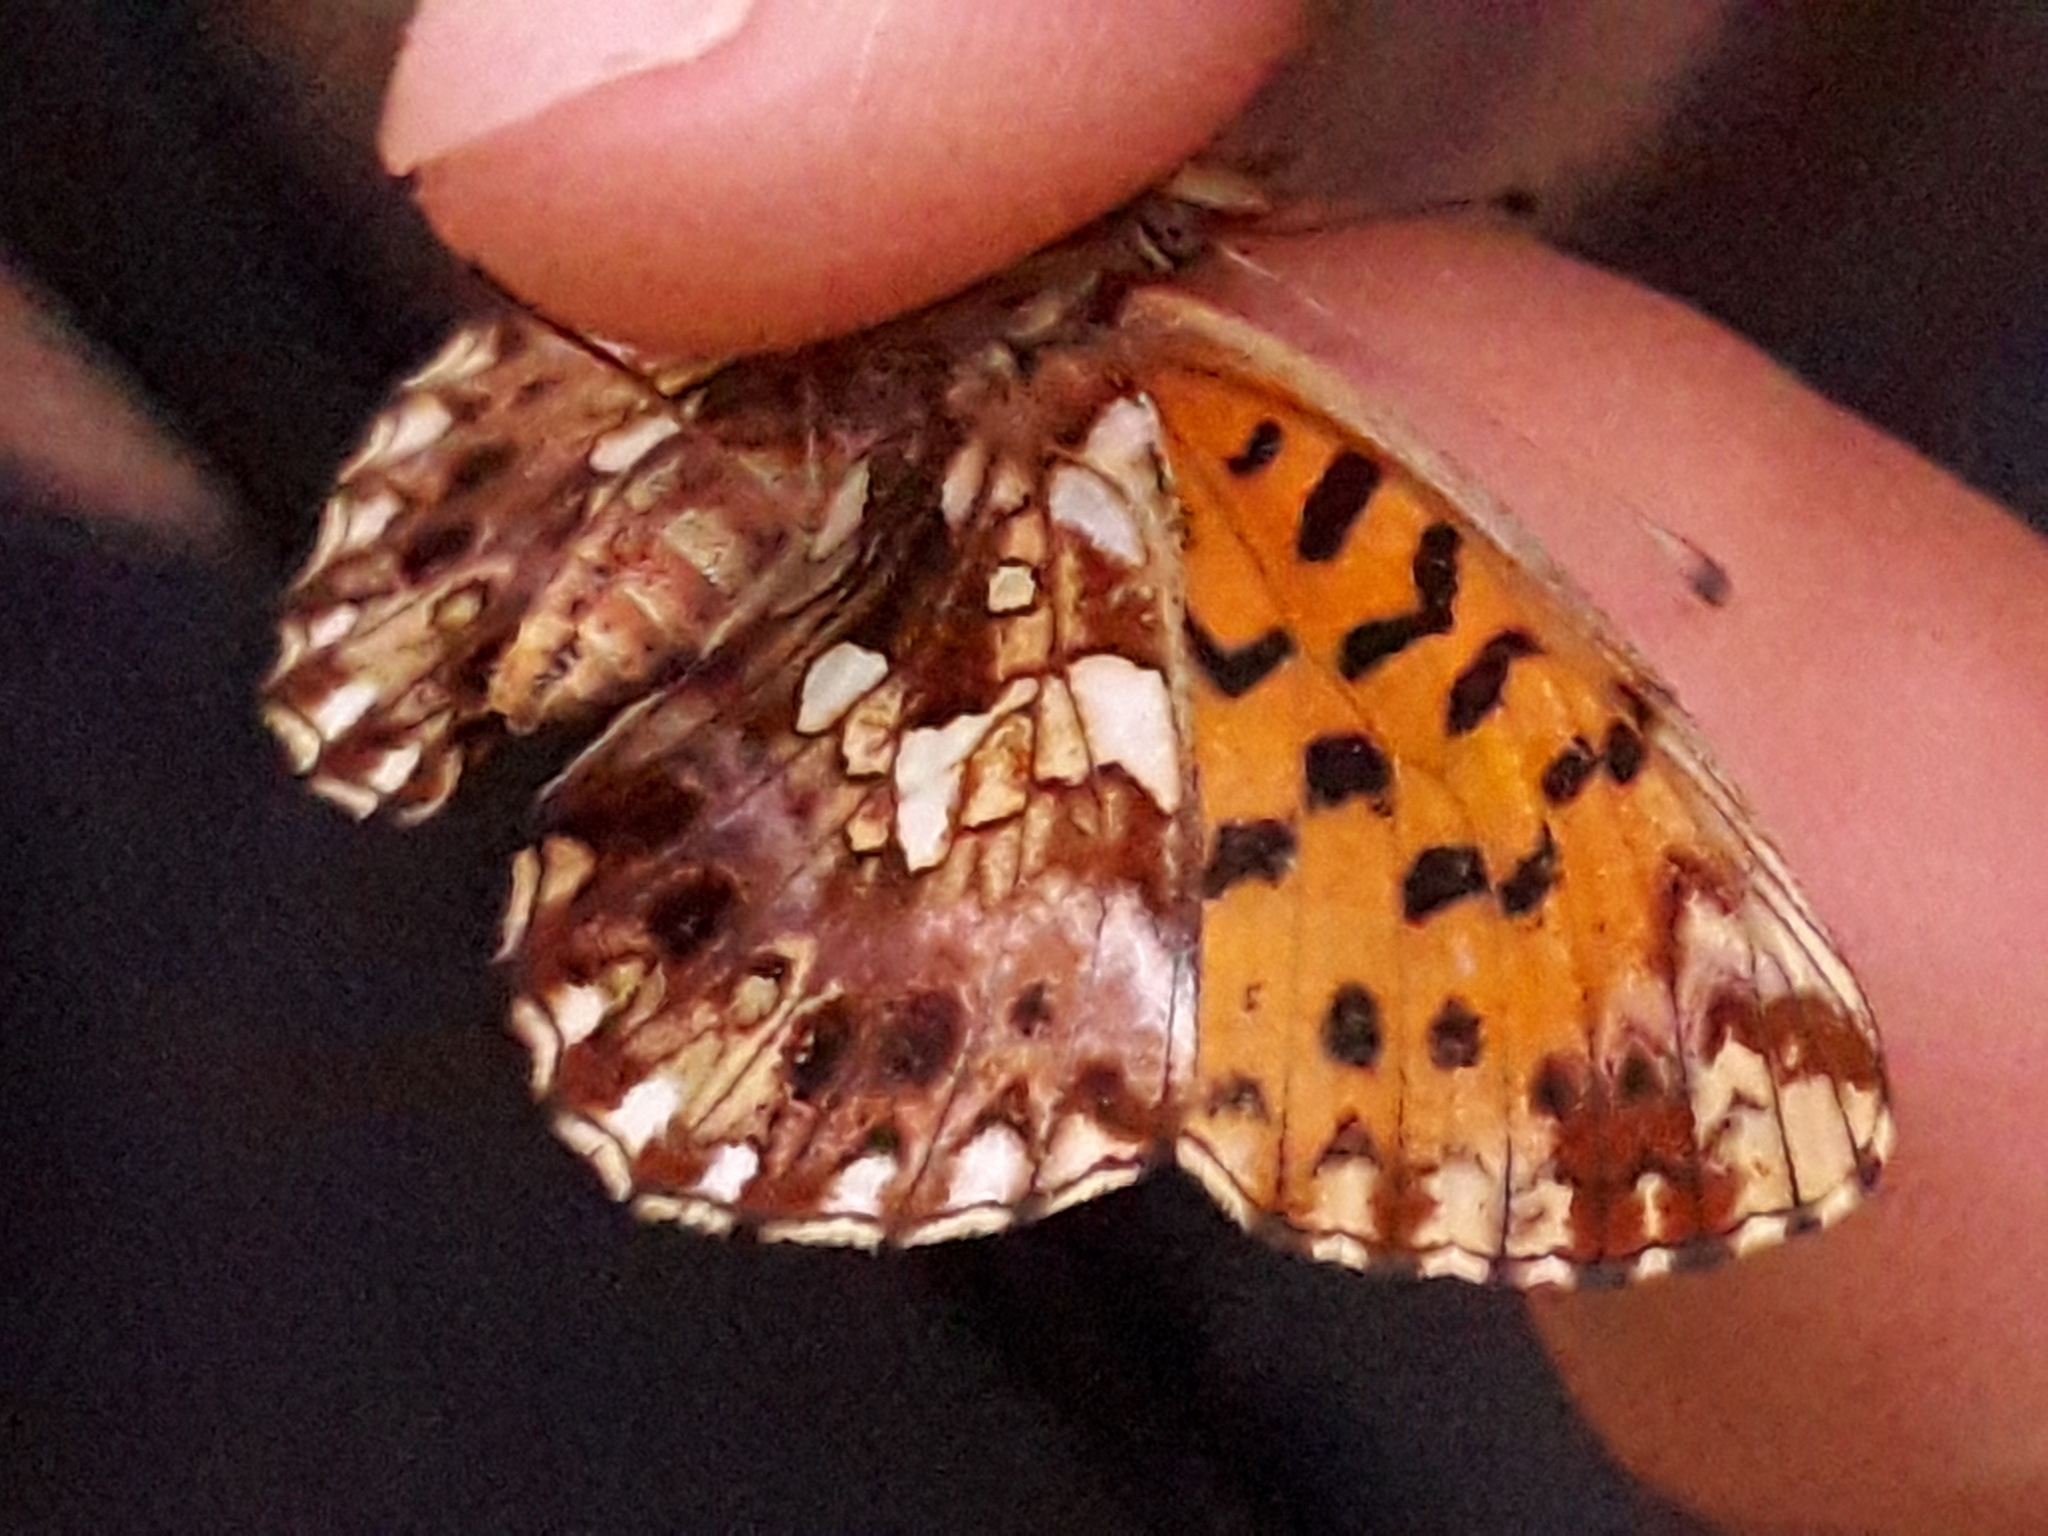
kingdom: Animalia
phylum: Arthropoda
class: Insecta
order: Lepidoptera
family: Nymphalidae
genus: Boloria
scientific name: Boloria dia
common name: Weaver's fritillary
